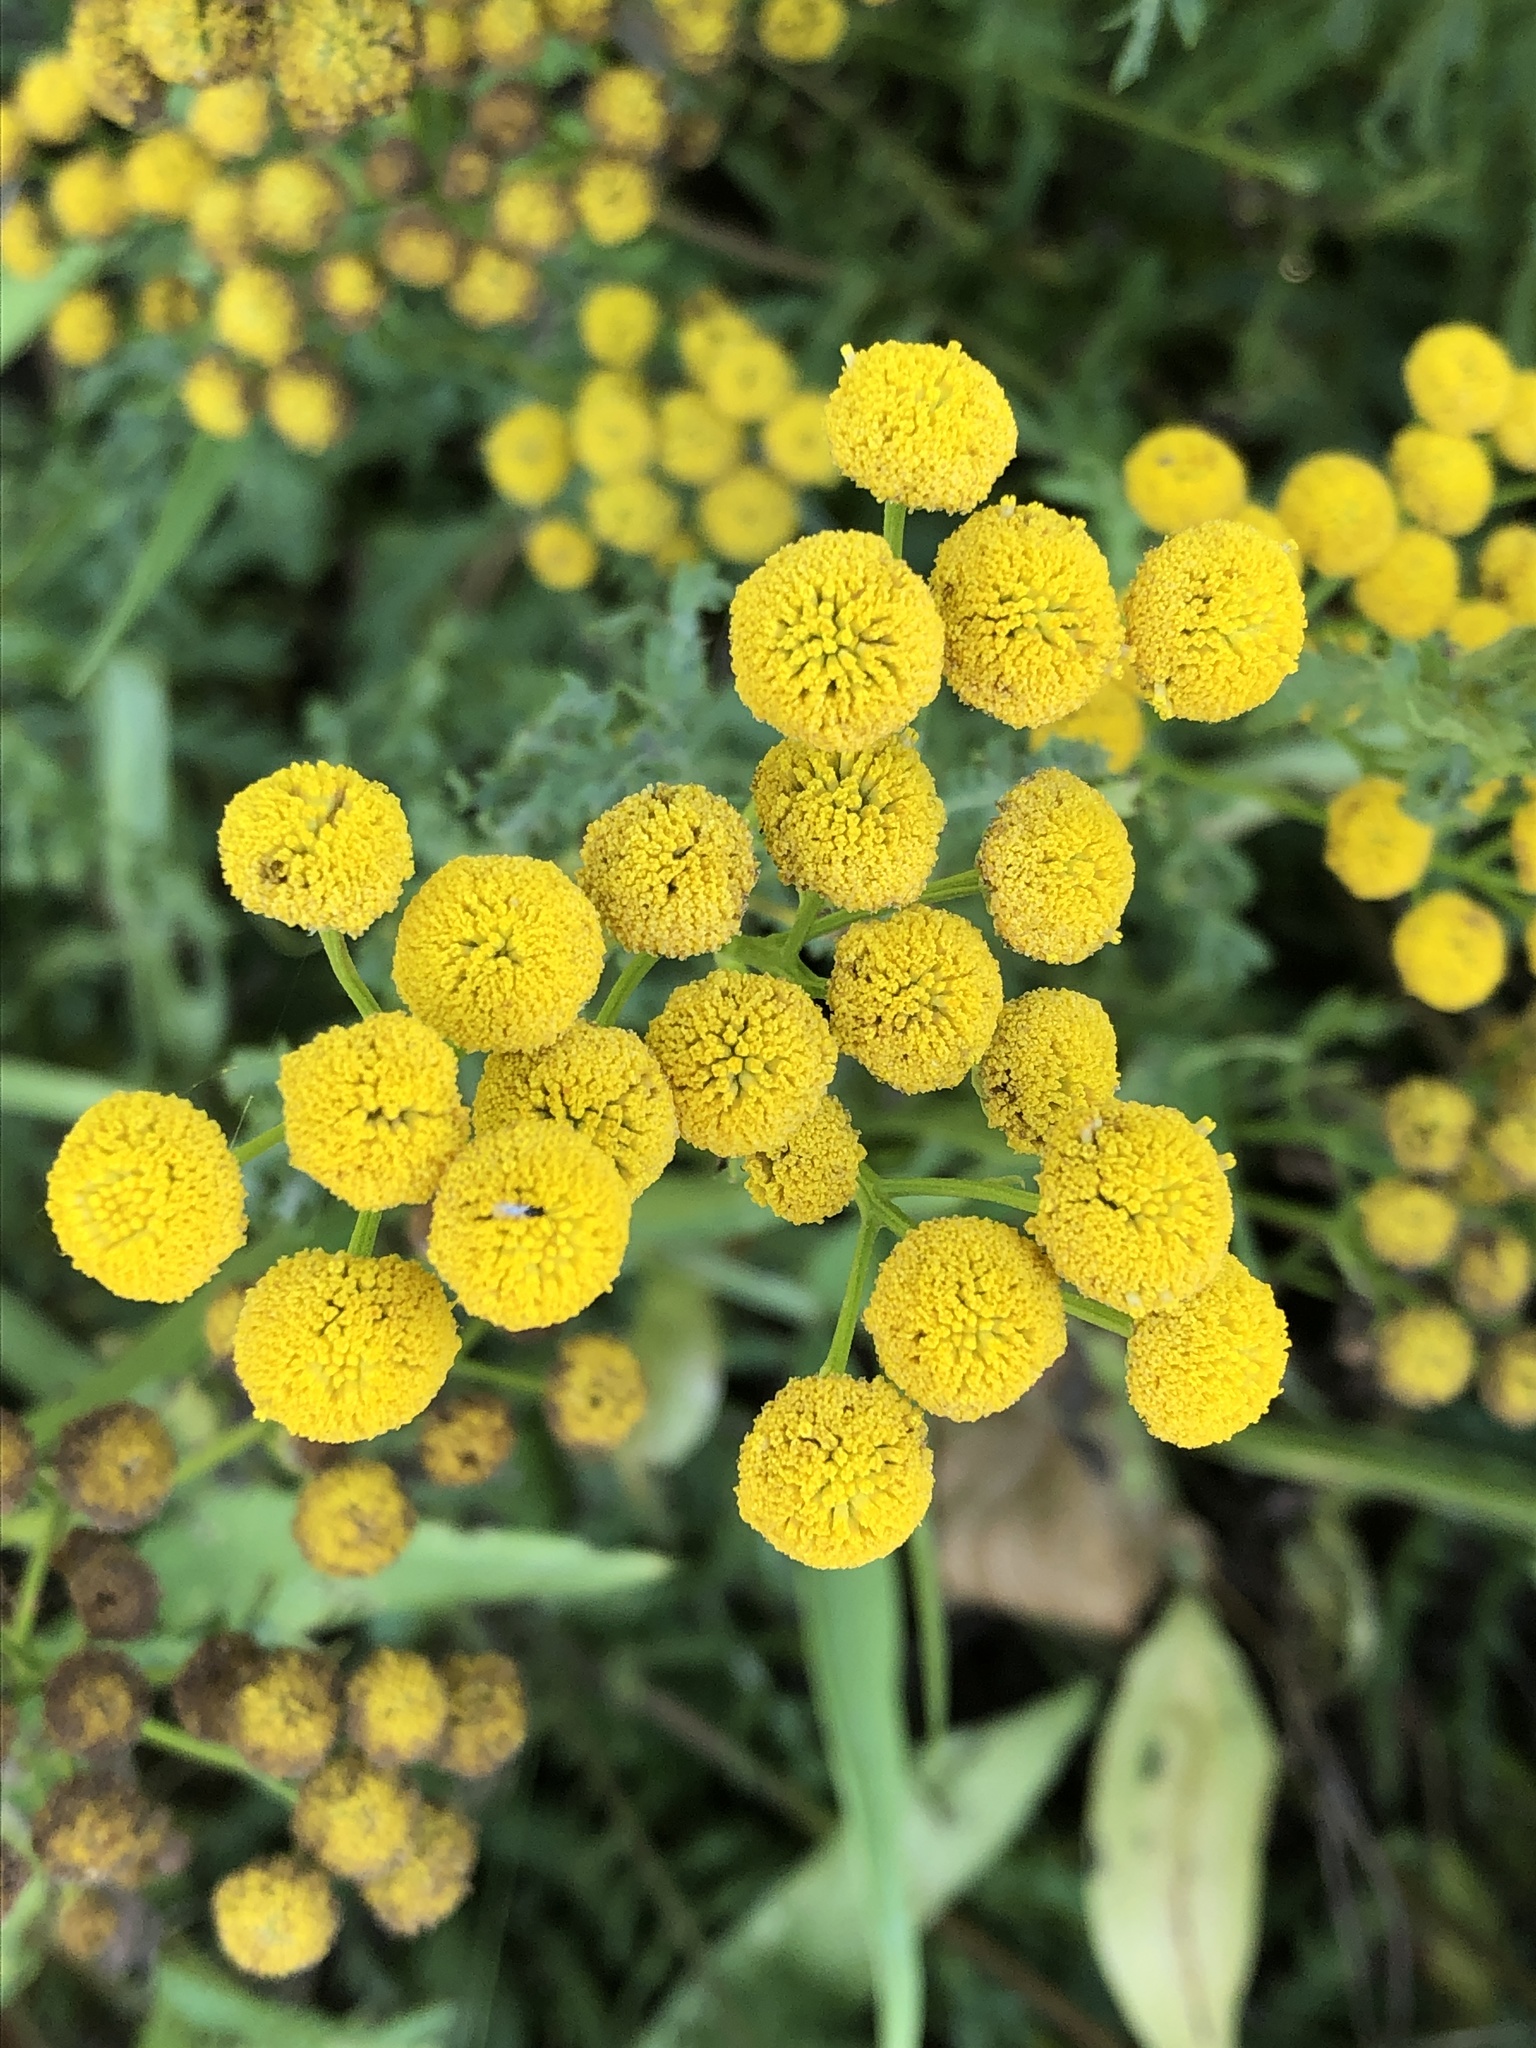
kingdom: Plantae
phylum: Tracheophyta
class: Magnoliopsida
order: Asterales
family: Asteraceae
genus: Tanacetum
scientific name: Tanacetum vulgare
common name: Common tansy
